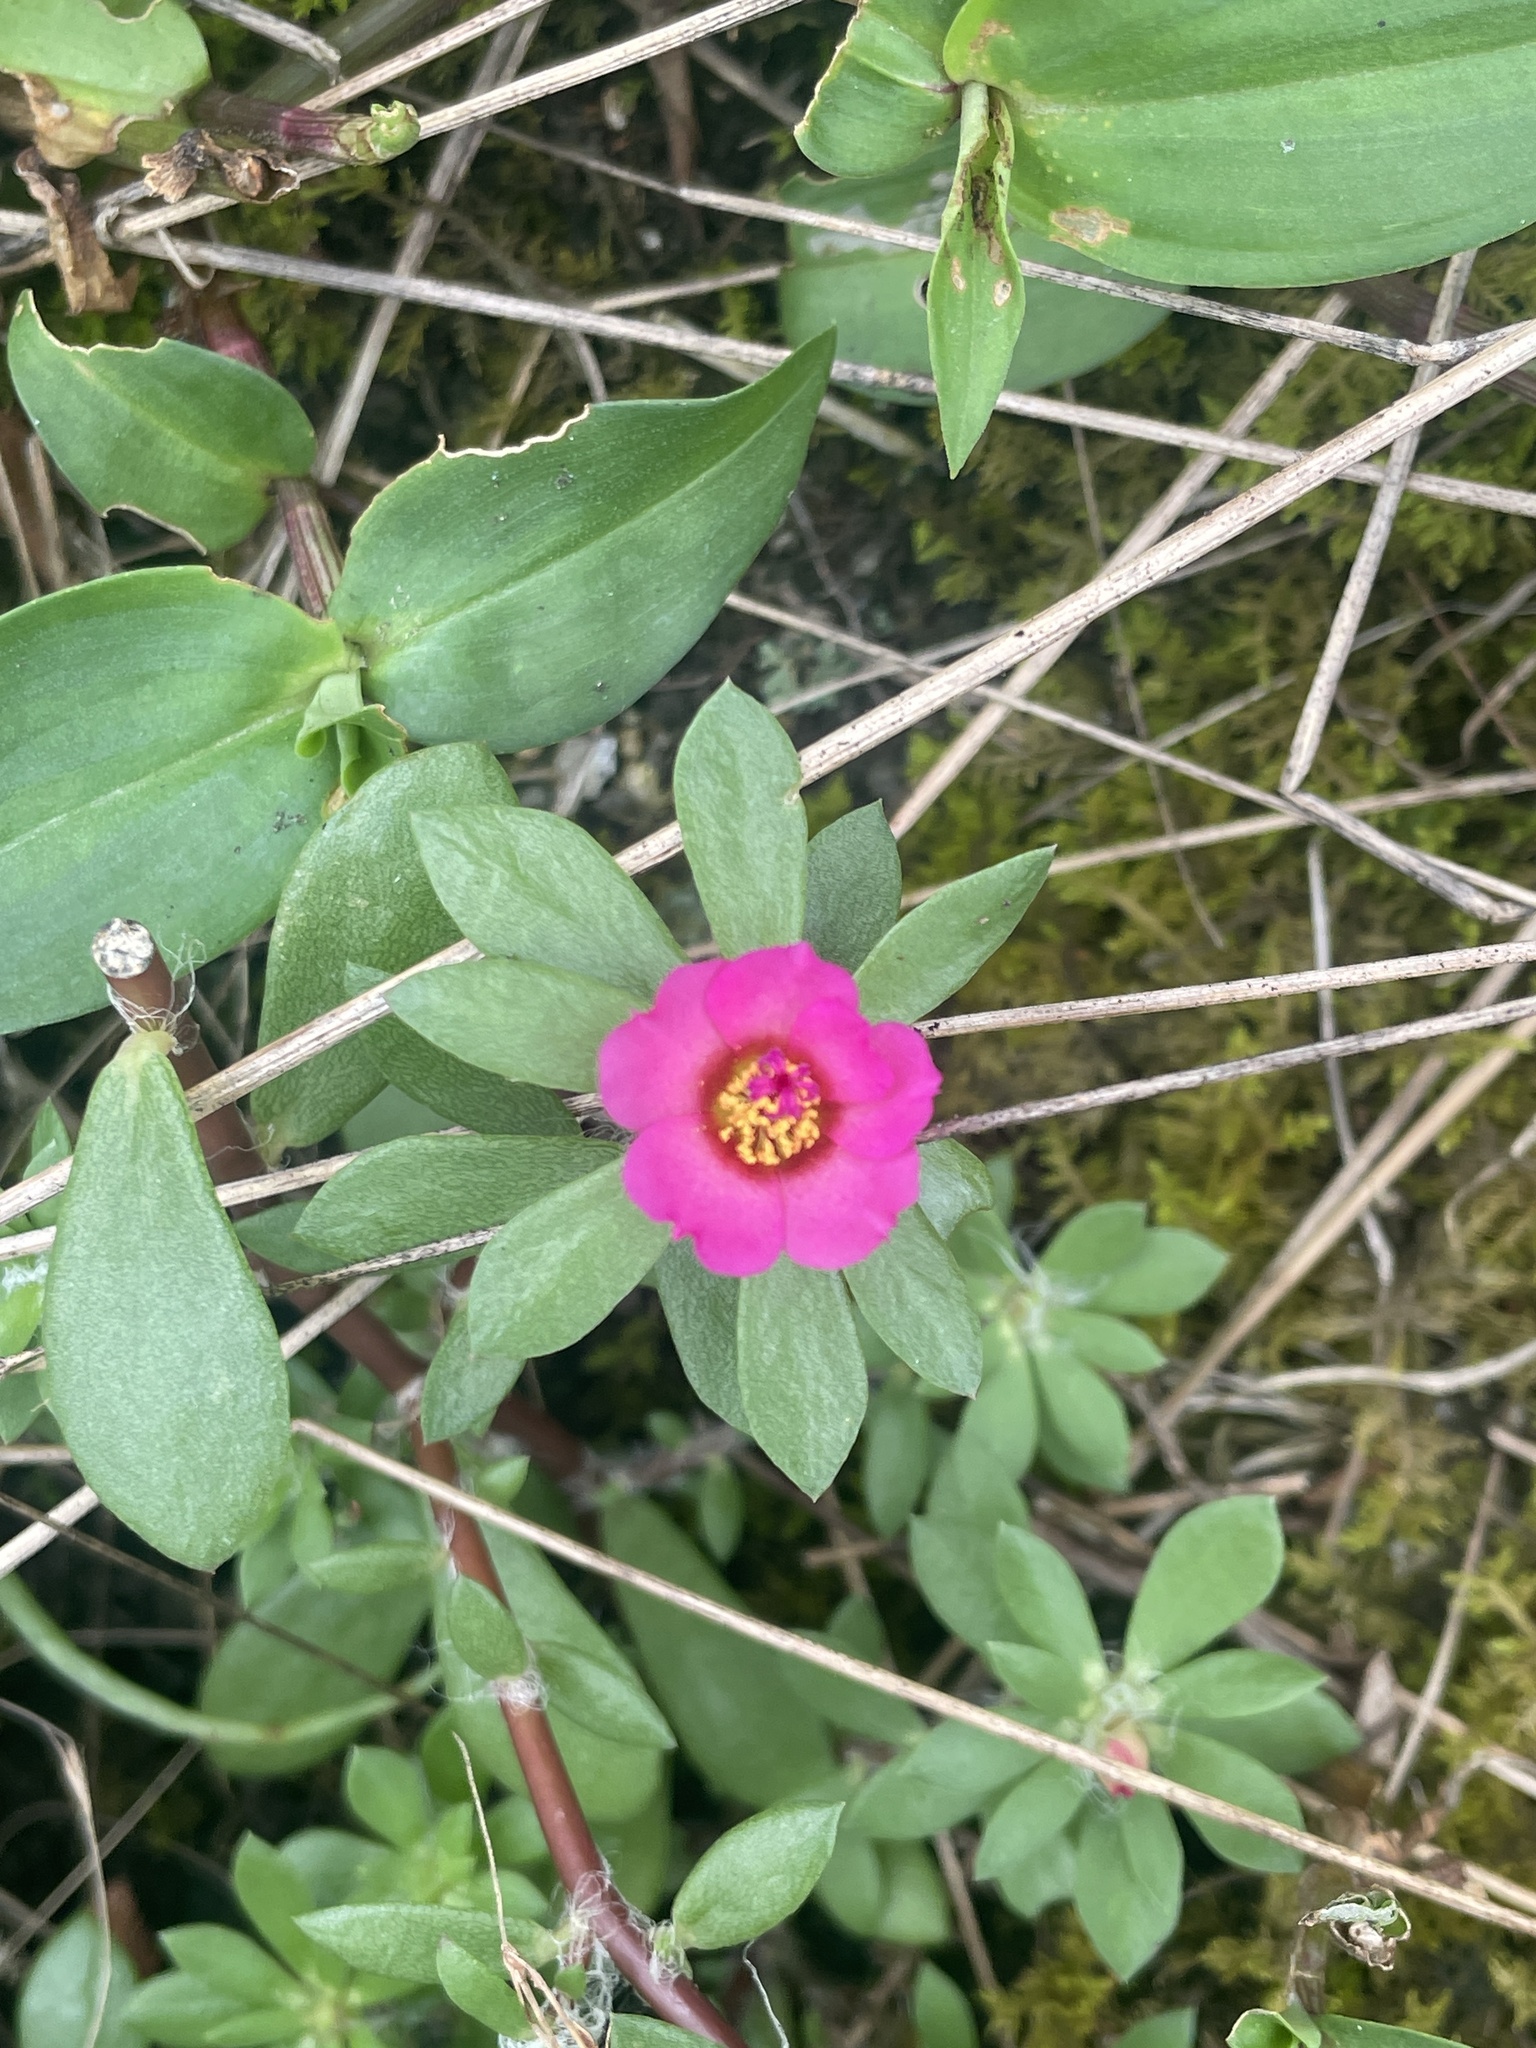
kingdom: Plantae
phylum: Tracheophyta
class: Magnoliopsida
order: Caryophyllales
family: Portulacaceae
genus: Portulaca
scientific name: Portulaca amilis
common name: Paraguayan purslane
